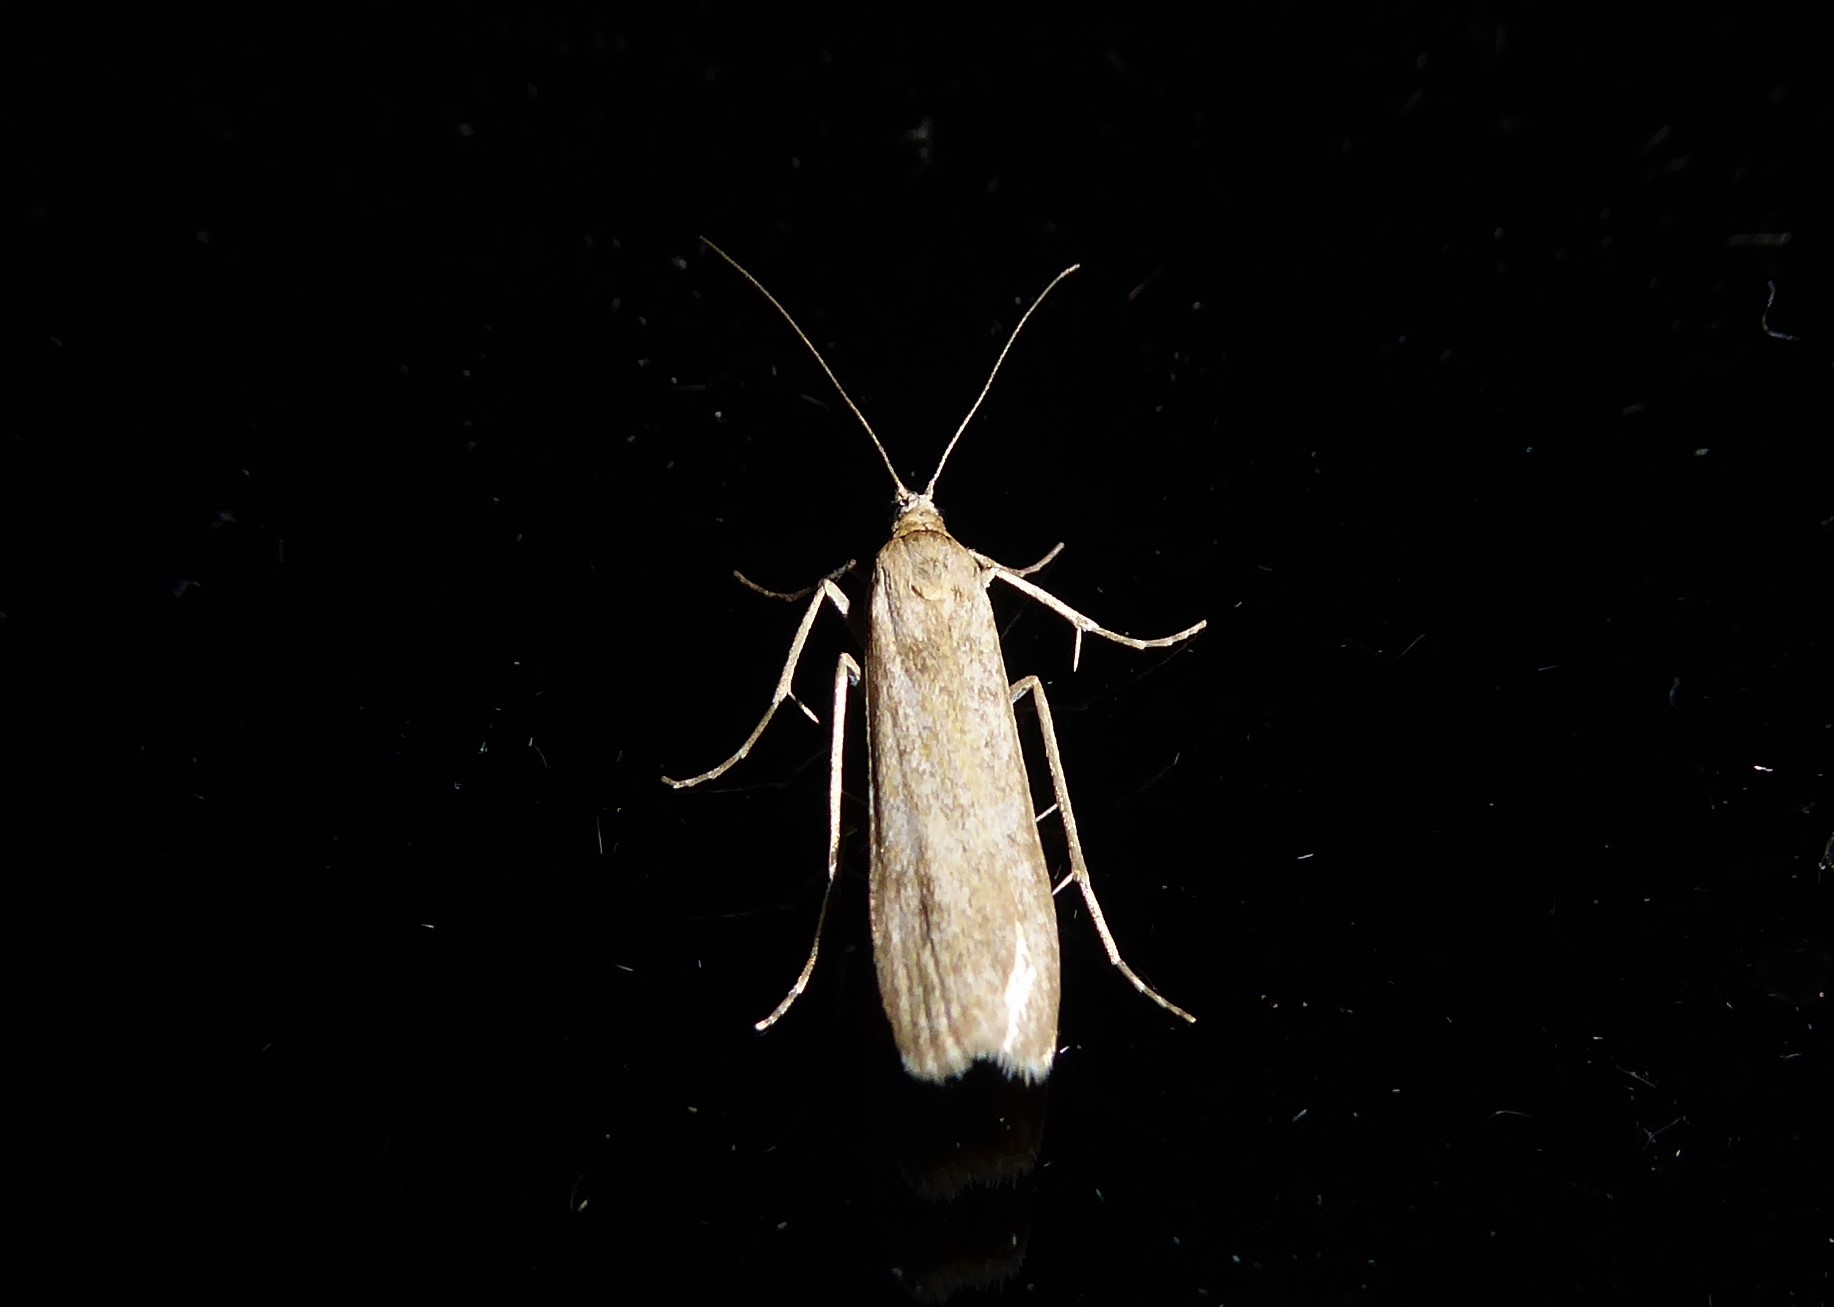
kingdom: Animalia
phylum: Arthropoda
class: Insecta
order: Lepidoptera
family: Crambidae
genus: Eudonia
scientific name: Eudonia leptalea
